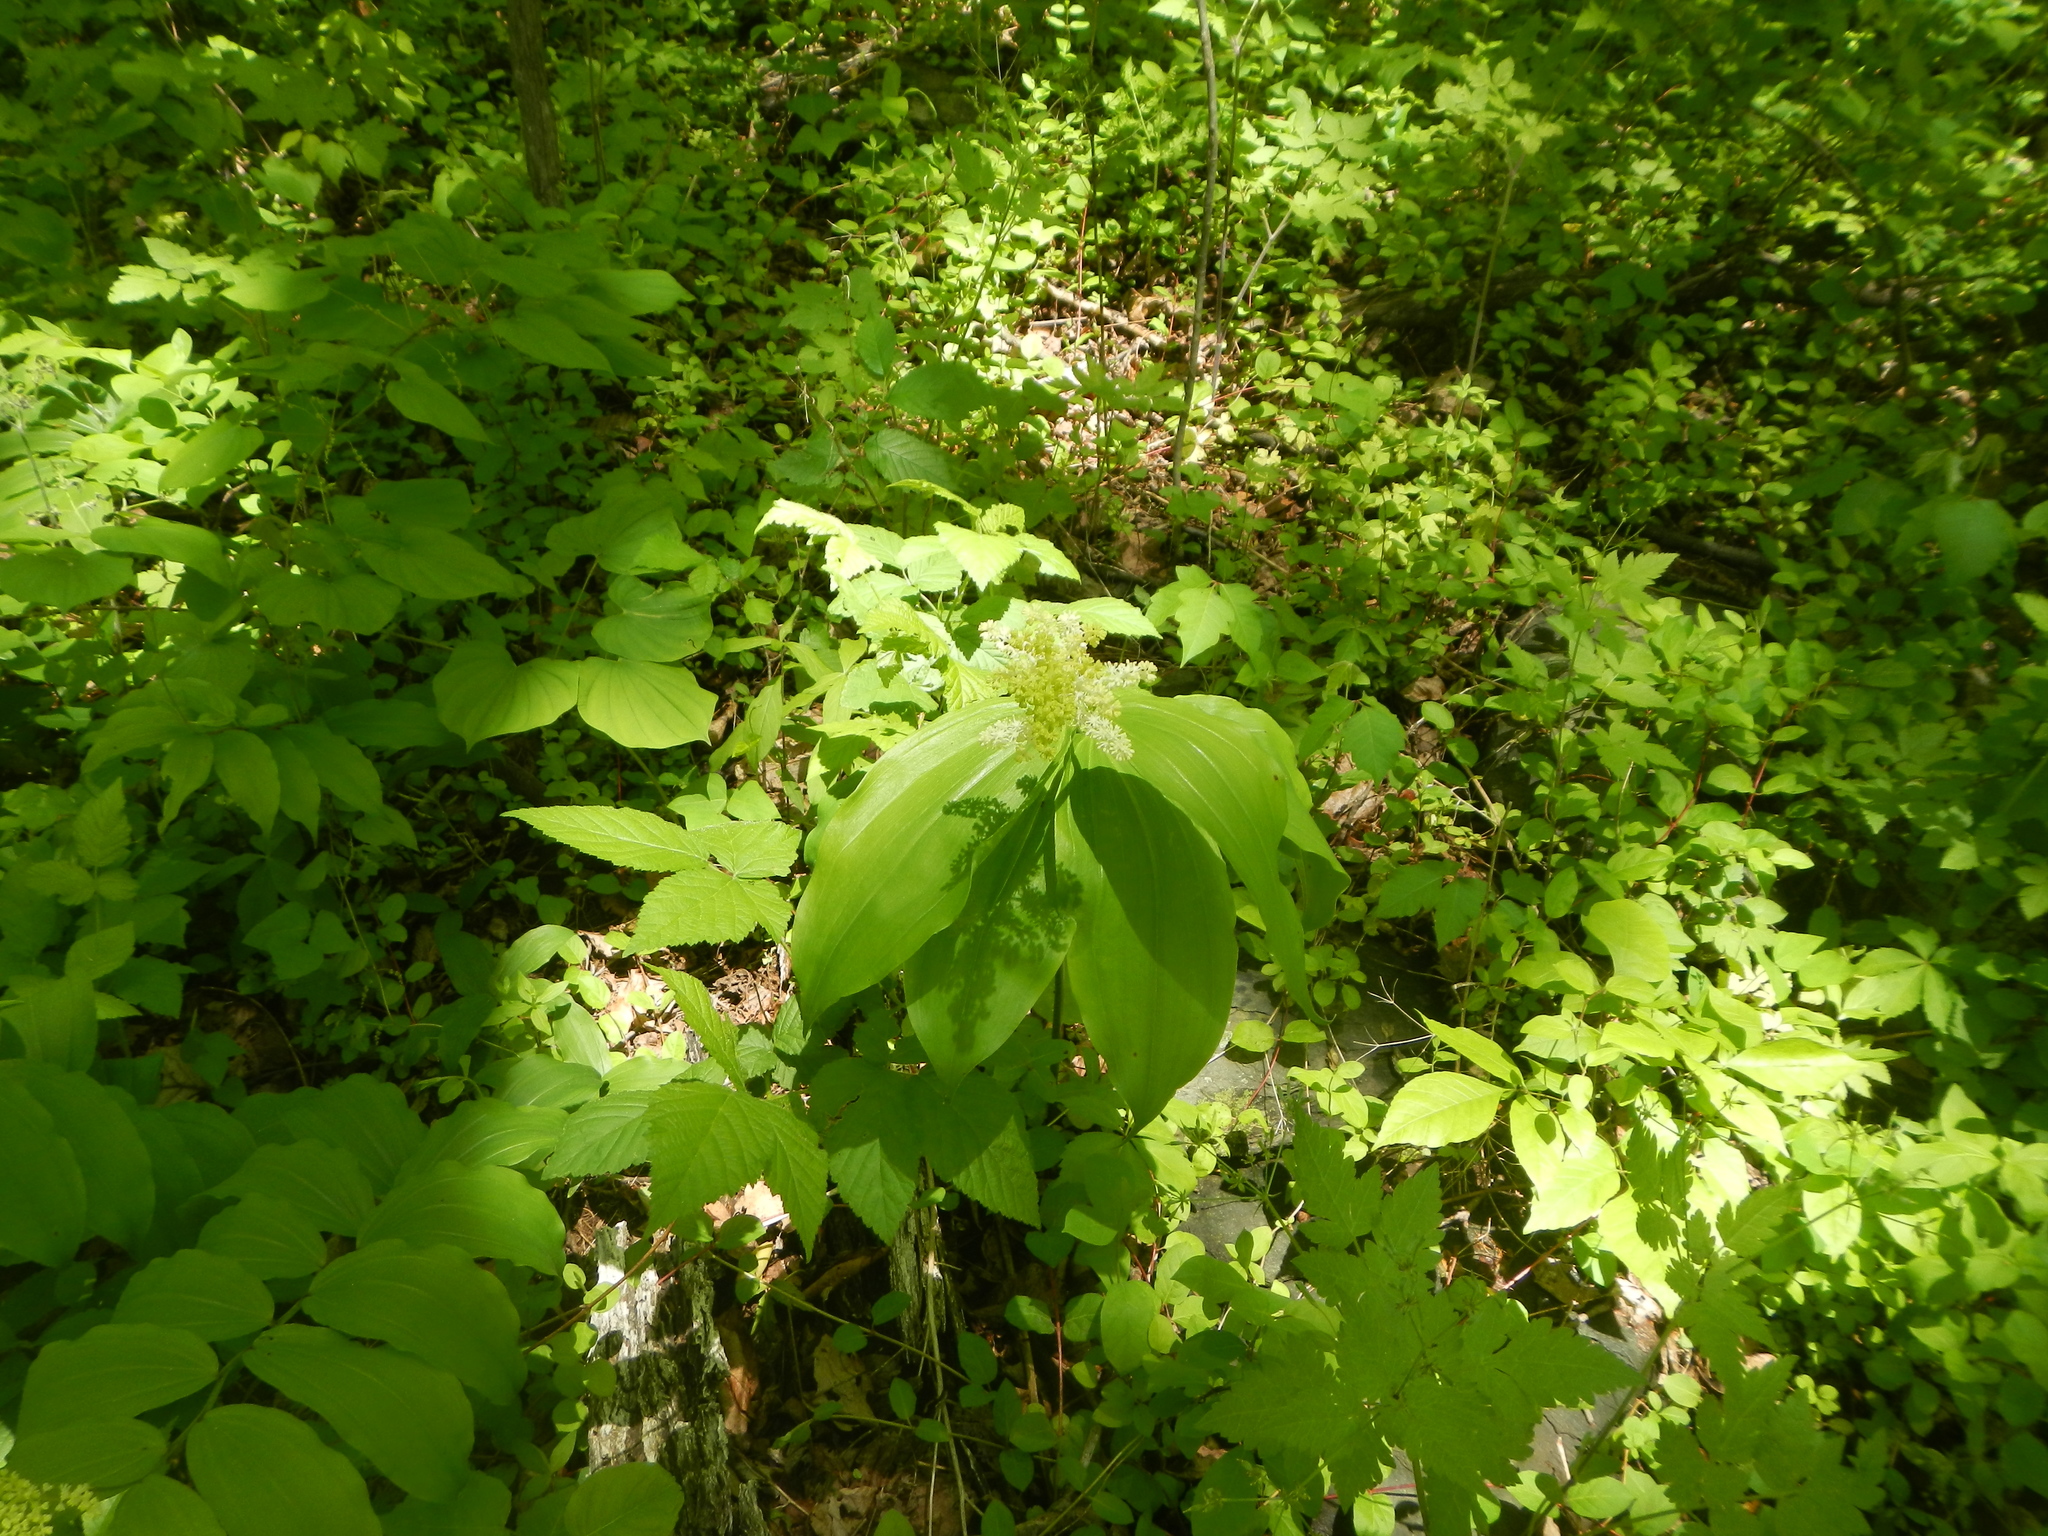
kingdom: Plantae
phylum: Tracheophyta
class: Liliopsida
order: Asparagales
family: Asparagaceae
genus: Maianthemum
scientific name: Maianthemum racemosum
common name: False spikenard
